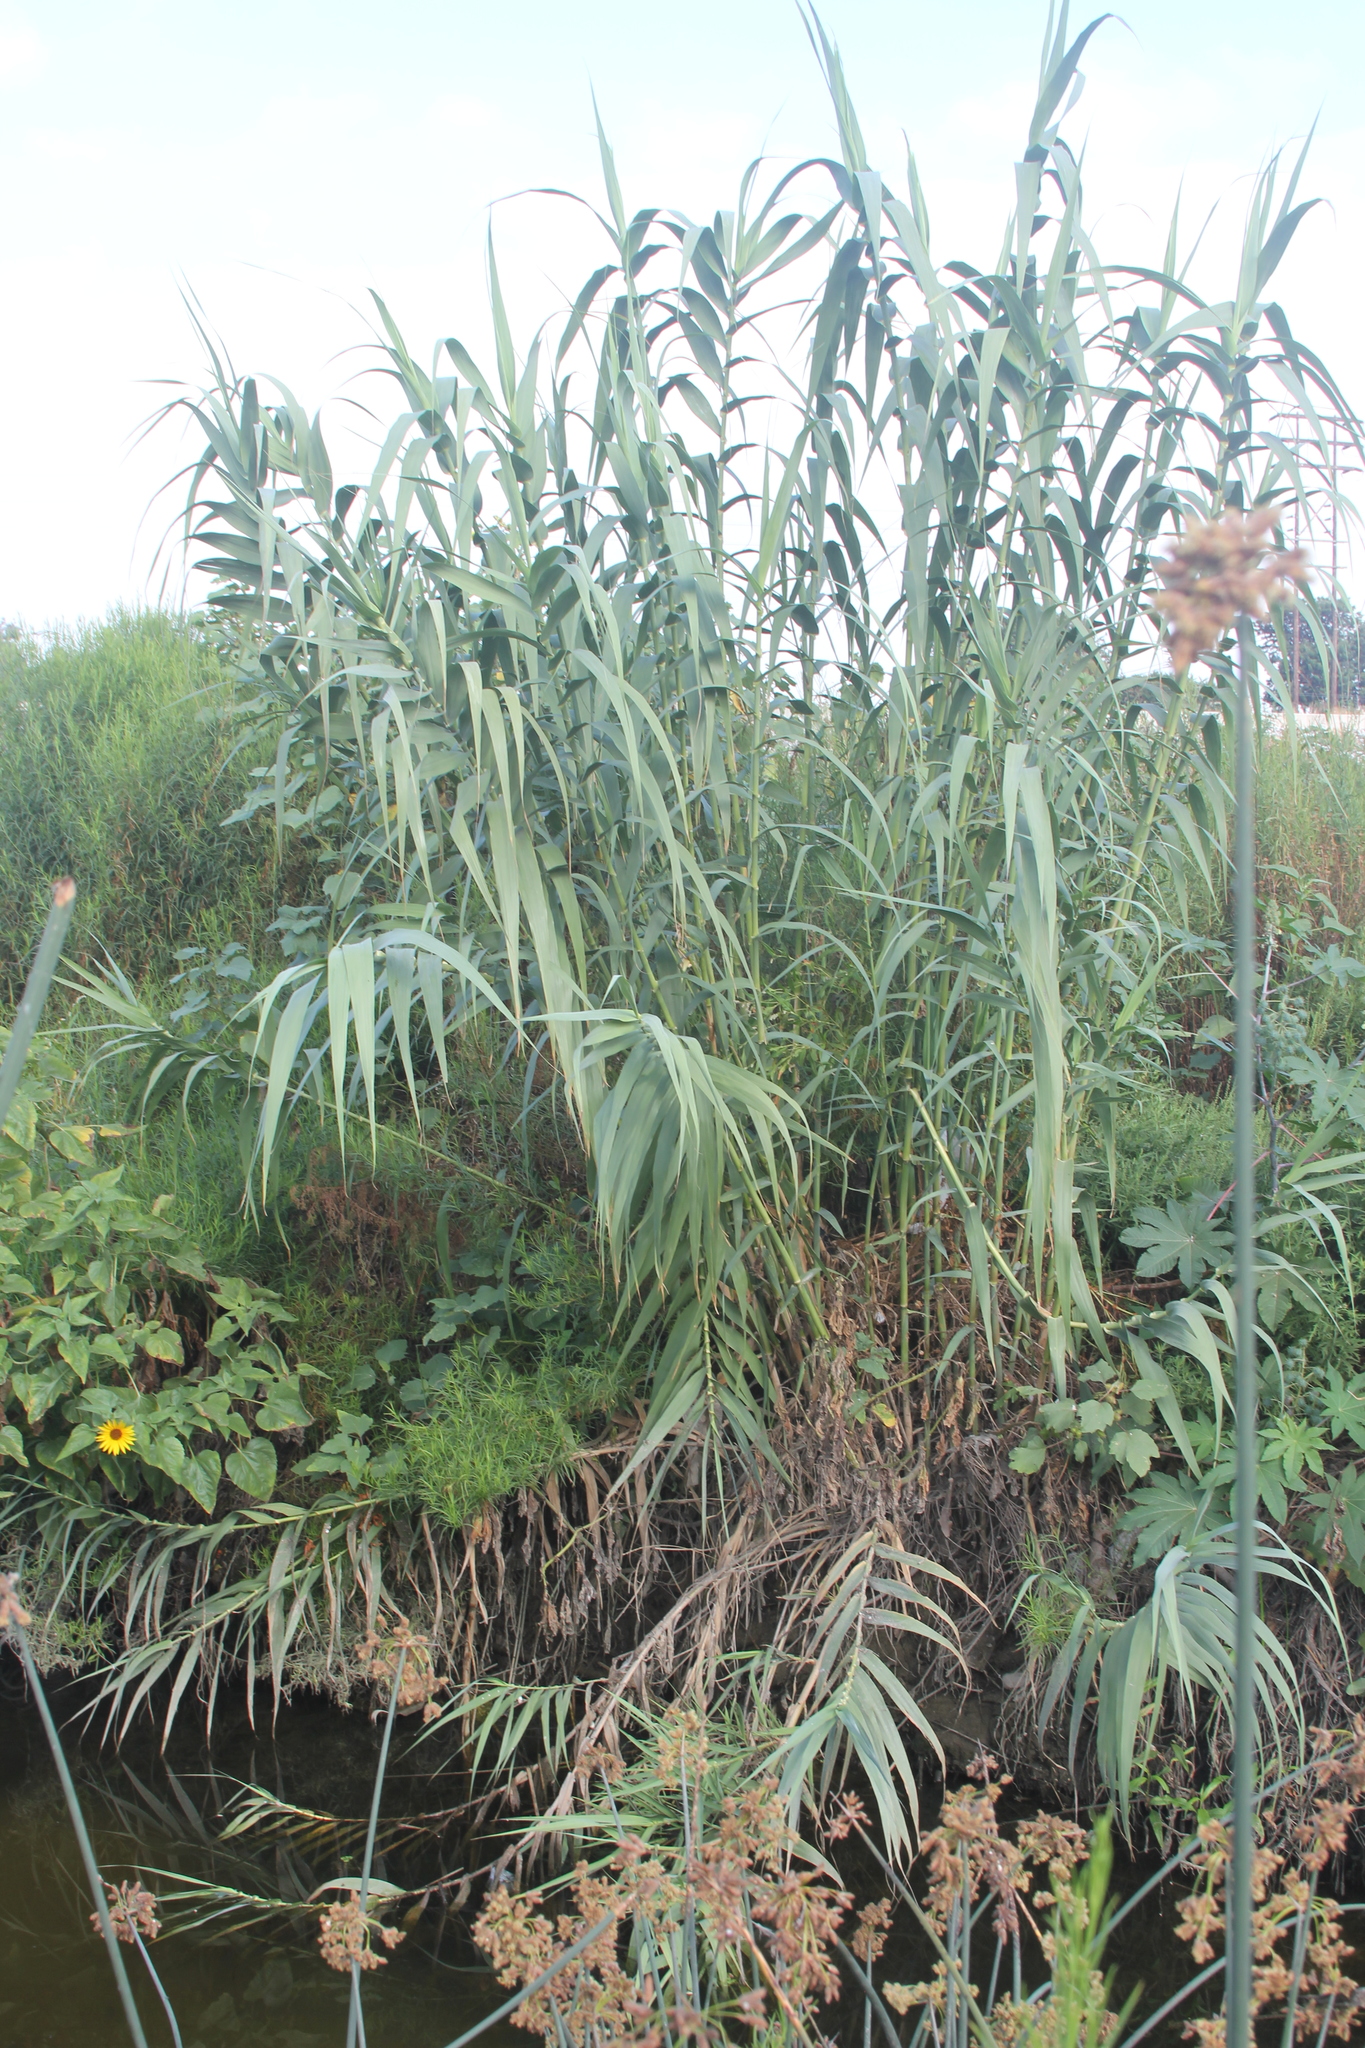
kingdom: Plantae
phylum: Tracheophyta
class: Liliopsida
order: Poales
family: Poaceae
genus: Arundo
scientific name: Arundo donax
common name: Giant reed
